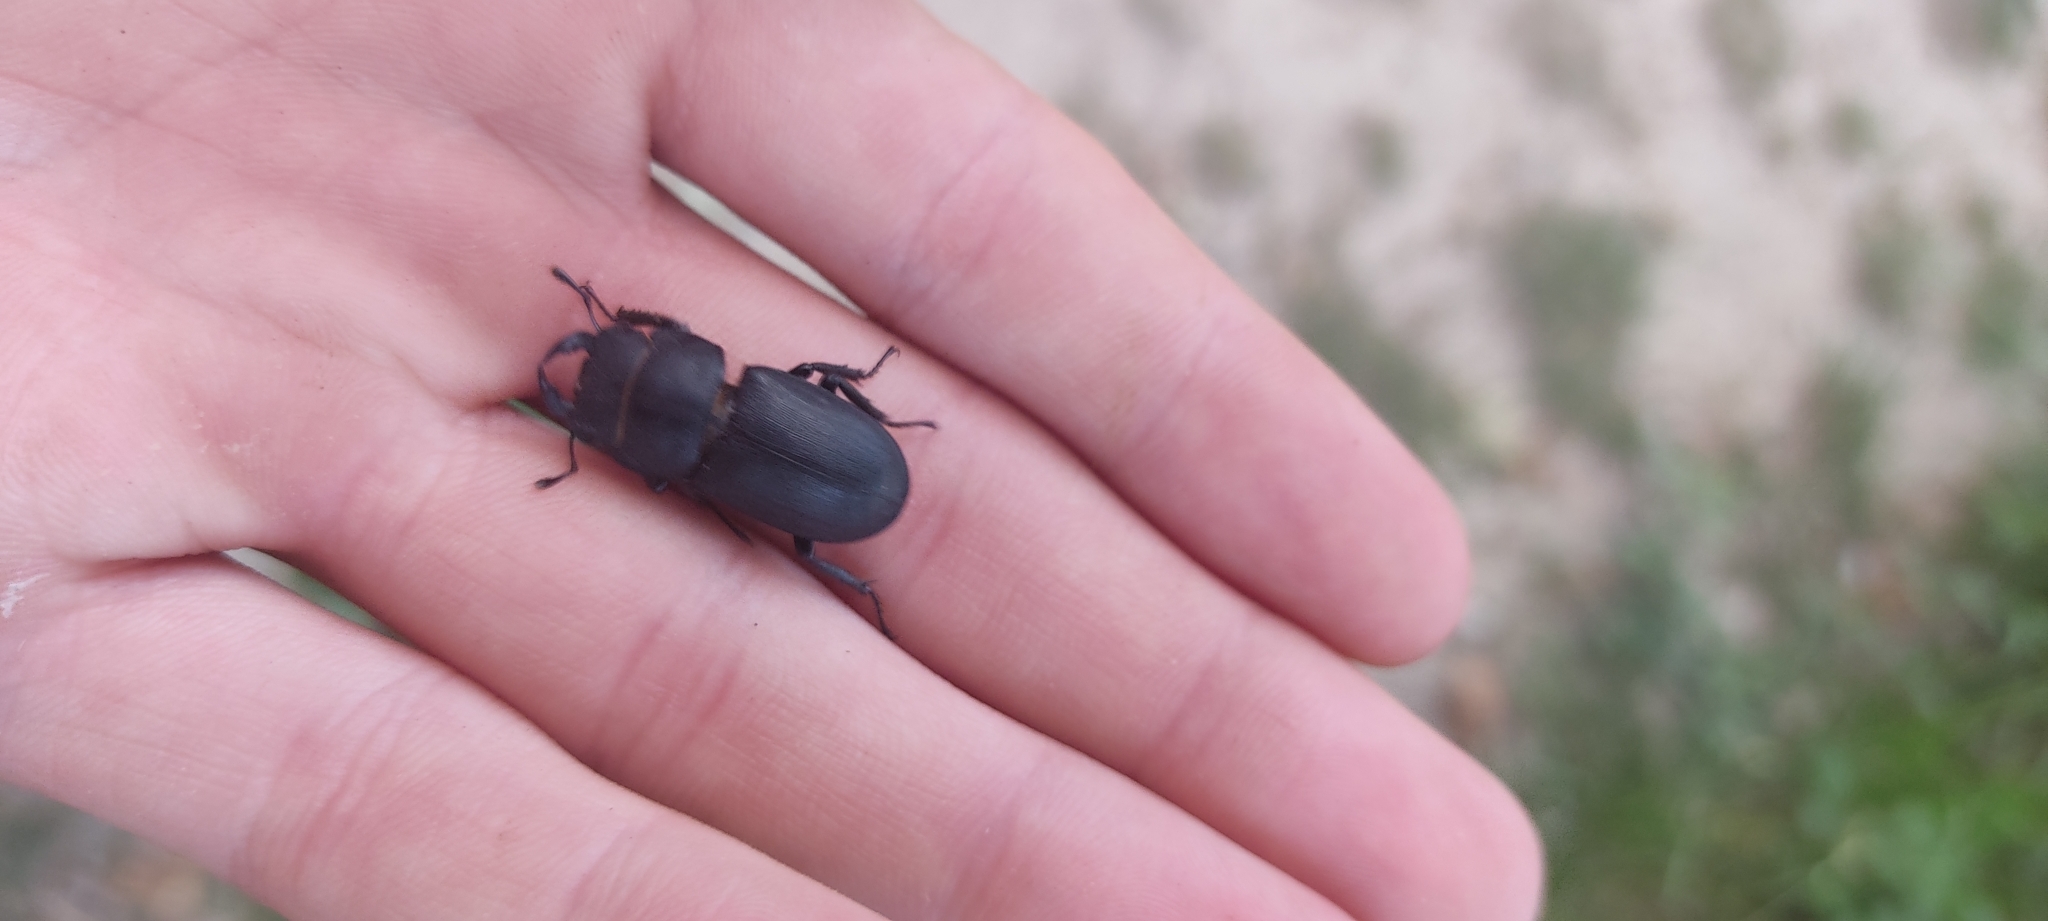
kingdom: Animalia
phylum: Arthropoda
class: Insecta
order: Coleoptera
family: Lucanidae
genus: Dorcus
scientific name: Dorcus parallelipipedus
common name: Lesser stag beetle
